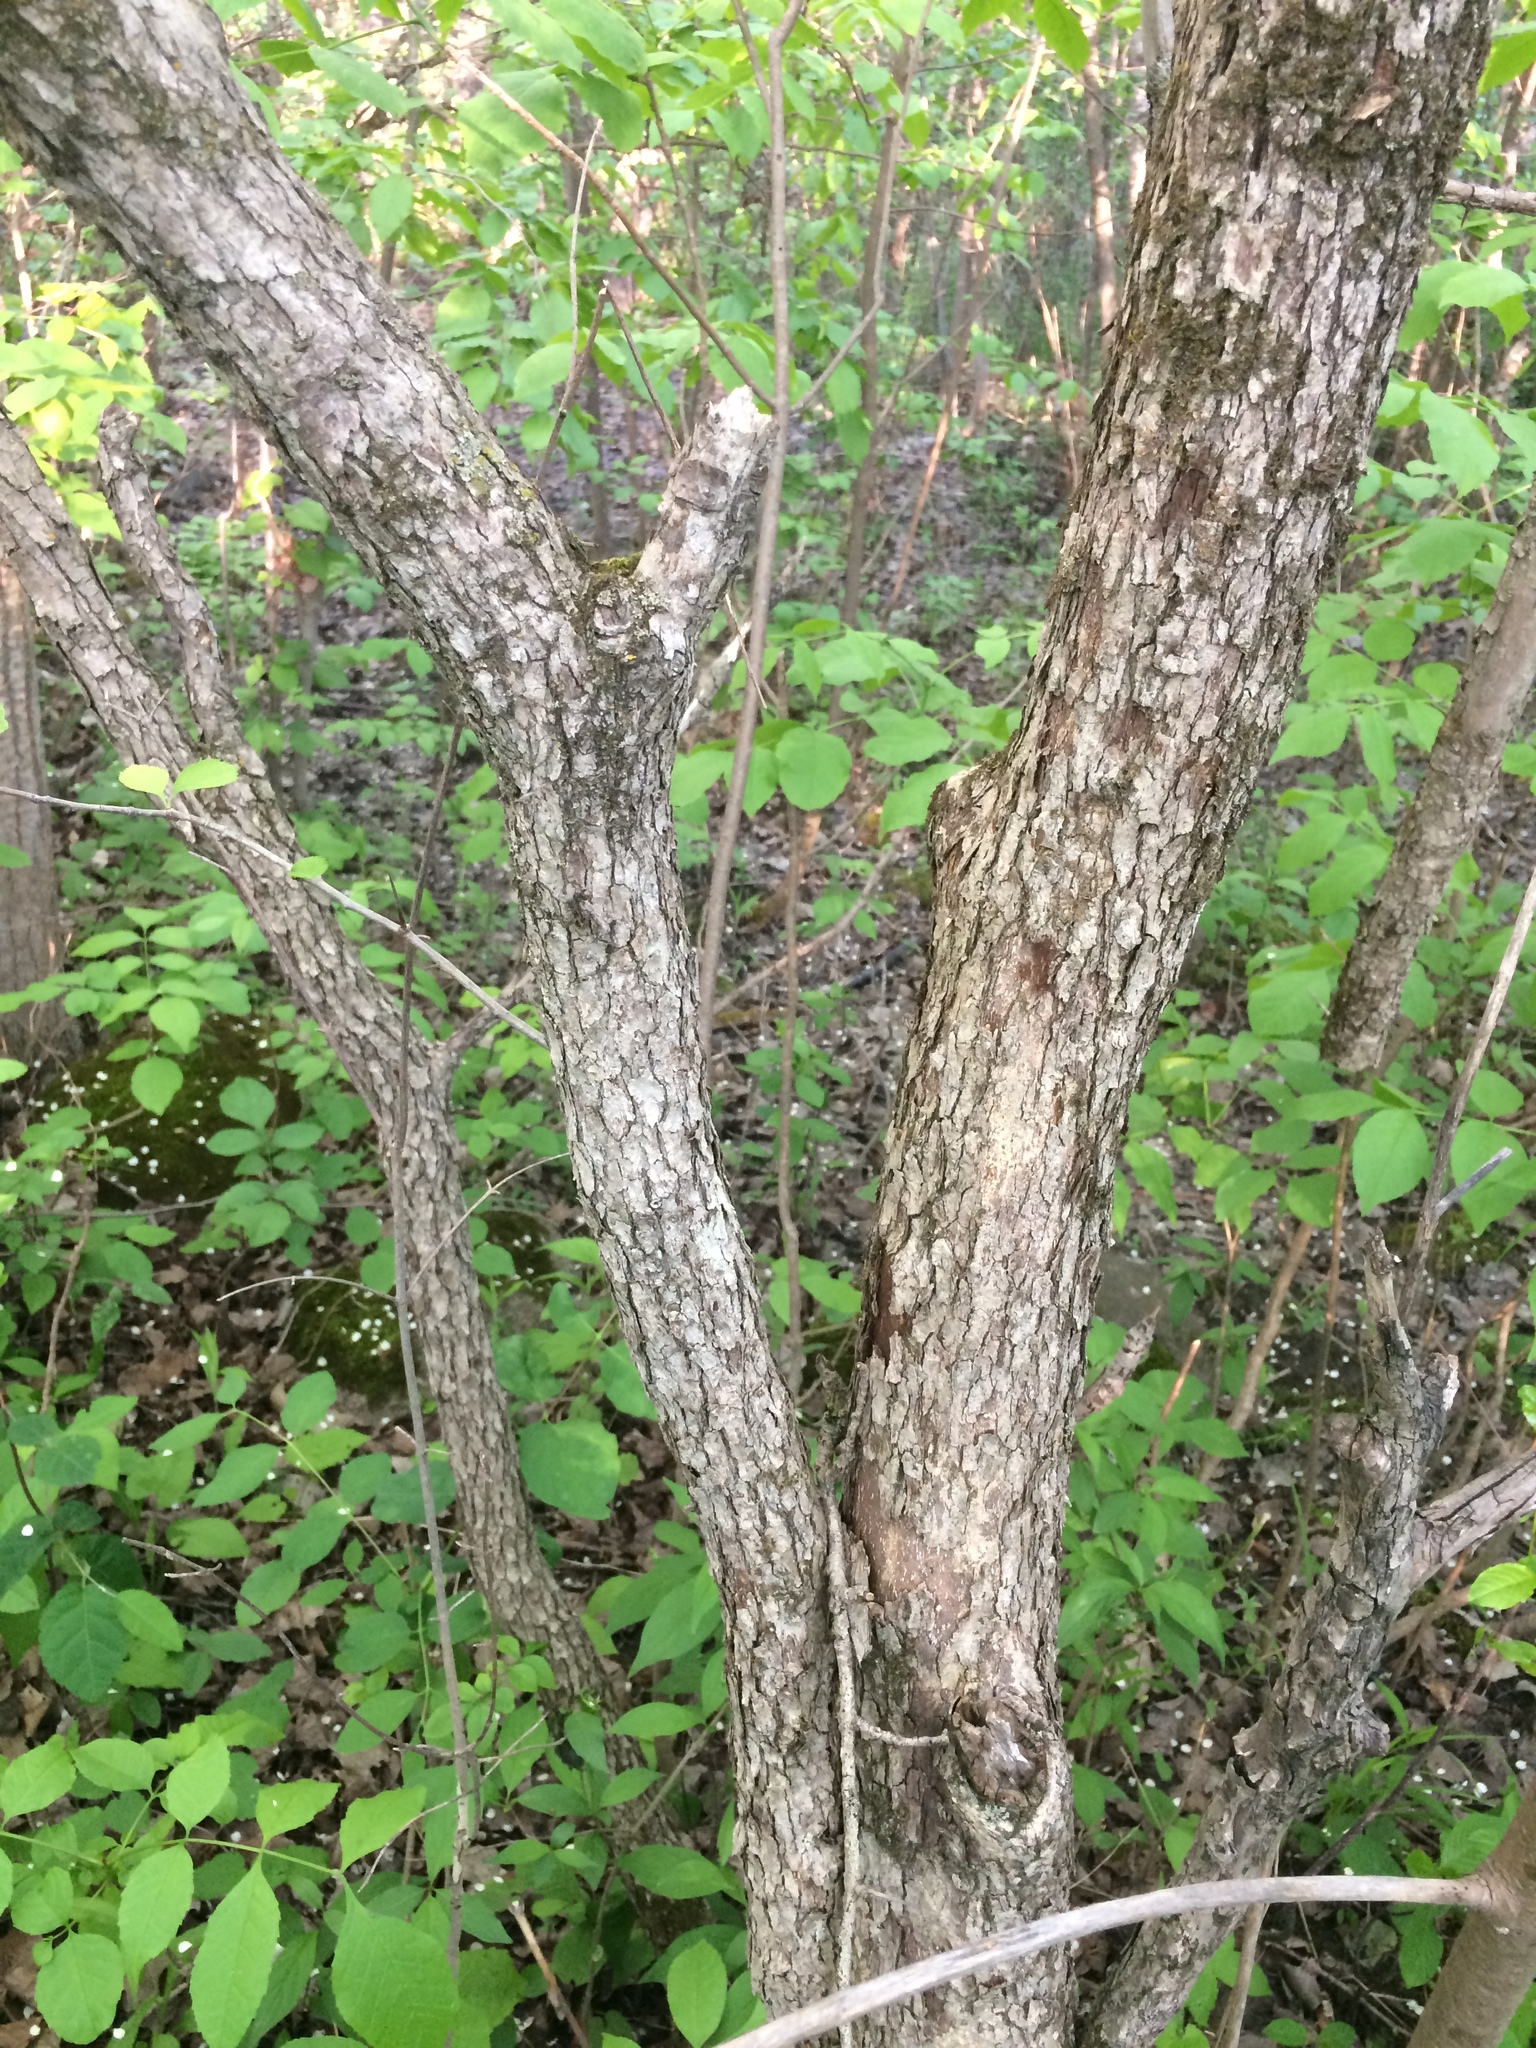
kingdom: Plantae
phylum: Tracheophyta
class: Magnoliopsida
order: Rosales
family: Rosaceae
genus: Crataegus
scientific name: Crataegus macracantha
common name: Large-thorn hawthorn
